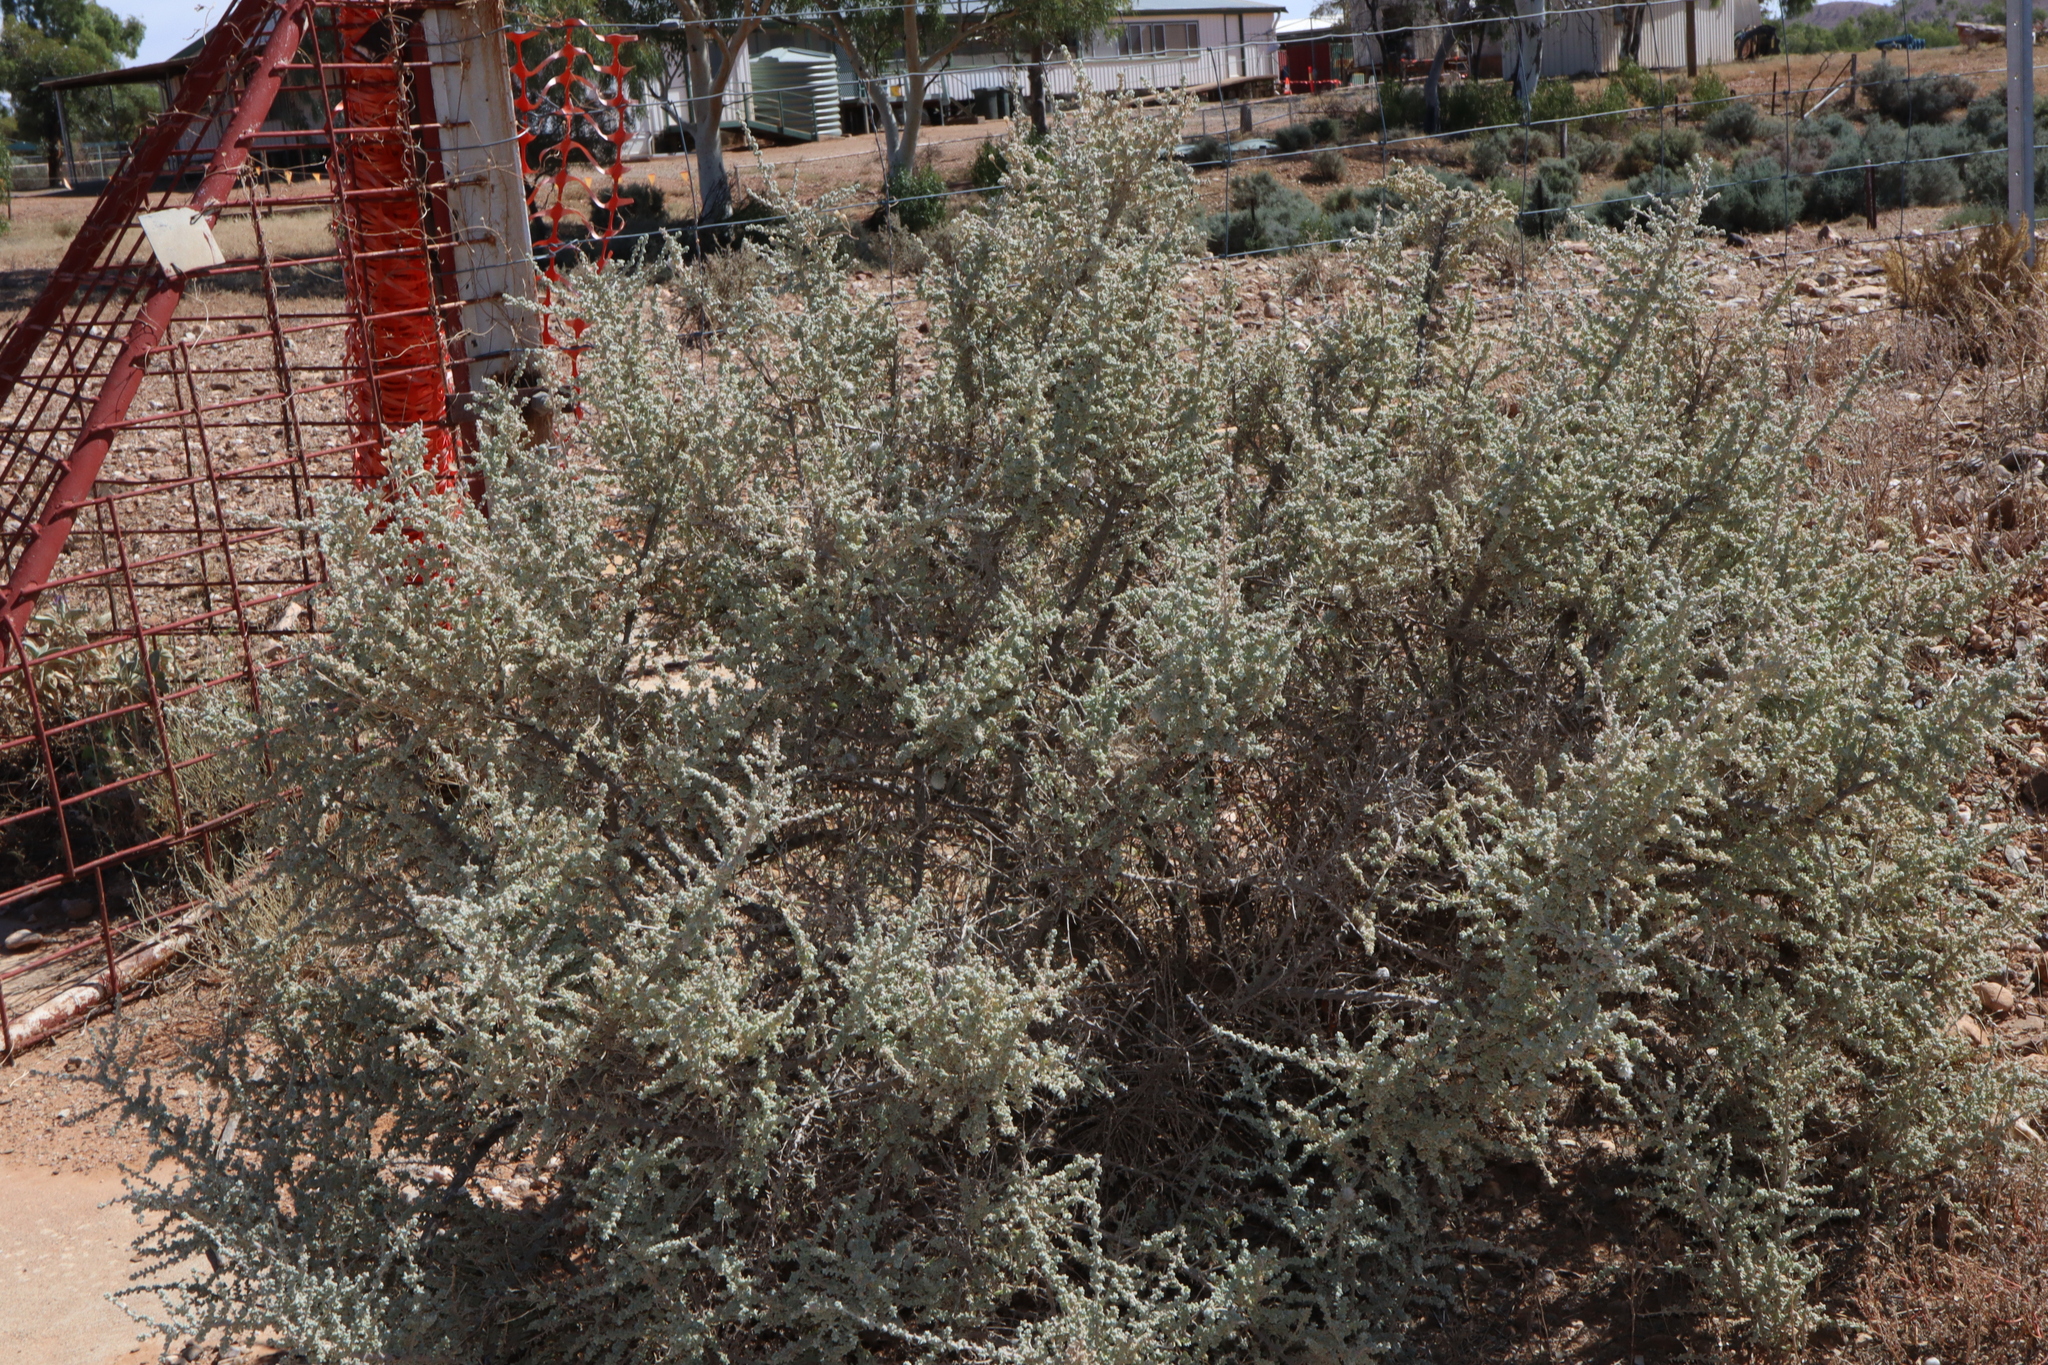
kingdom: Plantae
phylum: Tracheophyta
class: Magnoliopsida
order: Caryophyllales
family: Amaranthaceae
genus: Maireana
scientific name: Maireana pyramidata
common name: Sagobush
